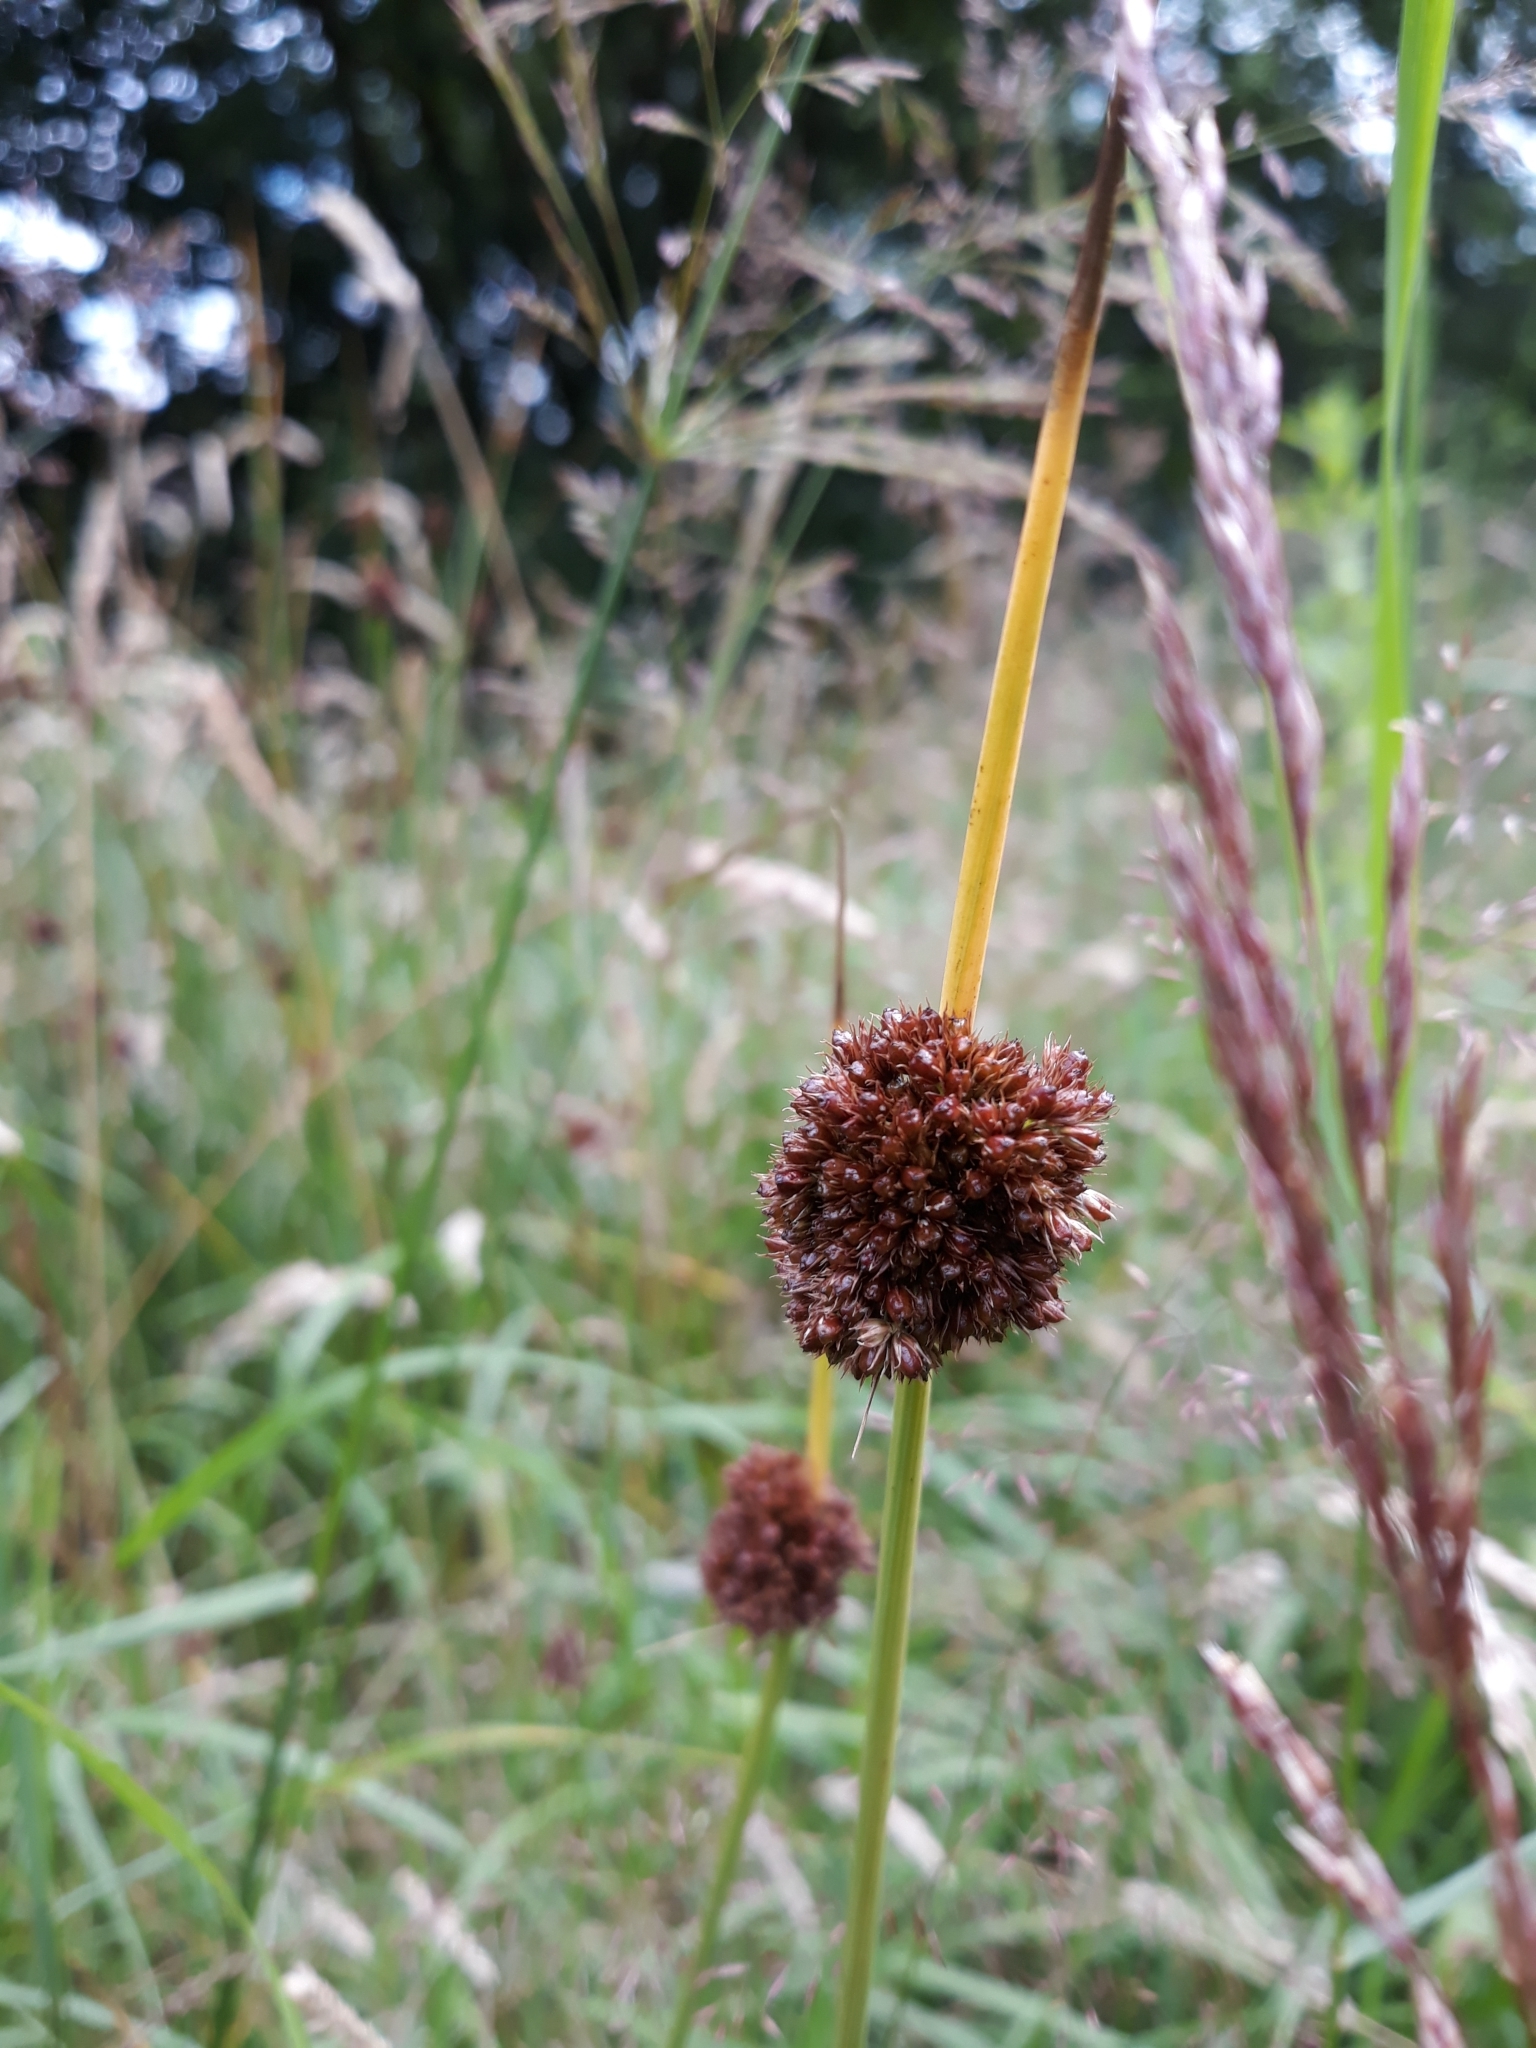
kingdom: Plantae
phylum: Tracheophyta
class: Liliopsida
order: Poales
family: Juncaceae
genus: Juncus
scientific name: Juncus conglomeratus
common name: Compact rush
